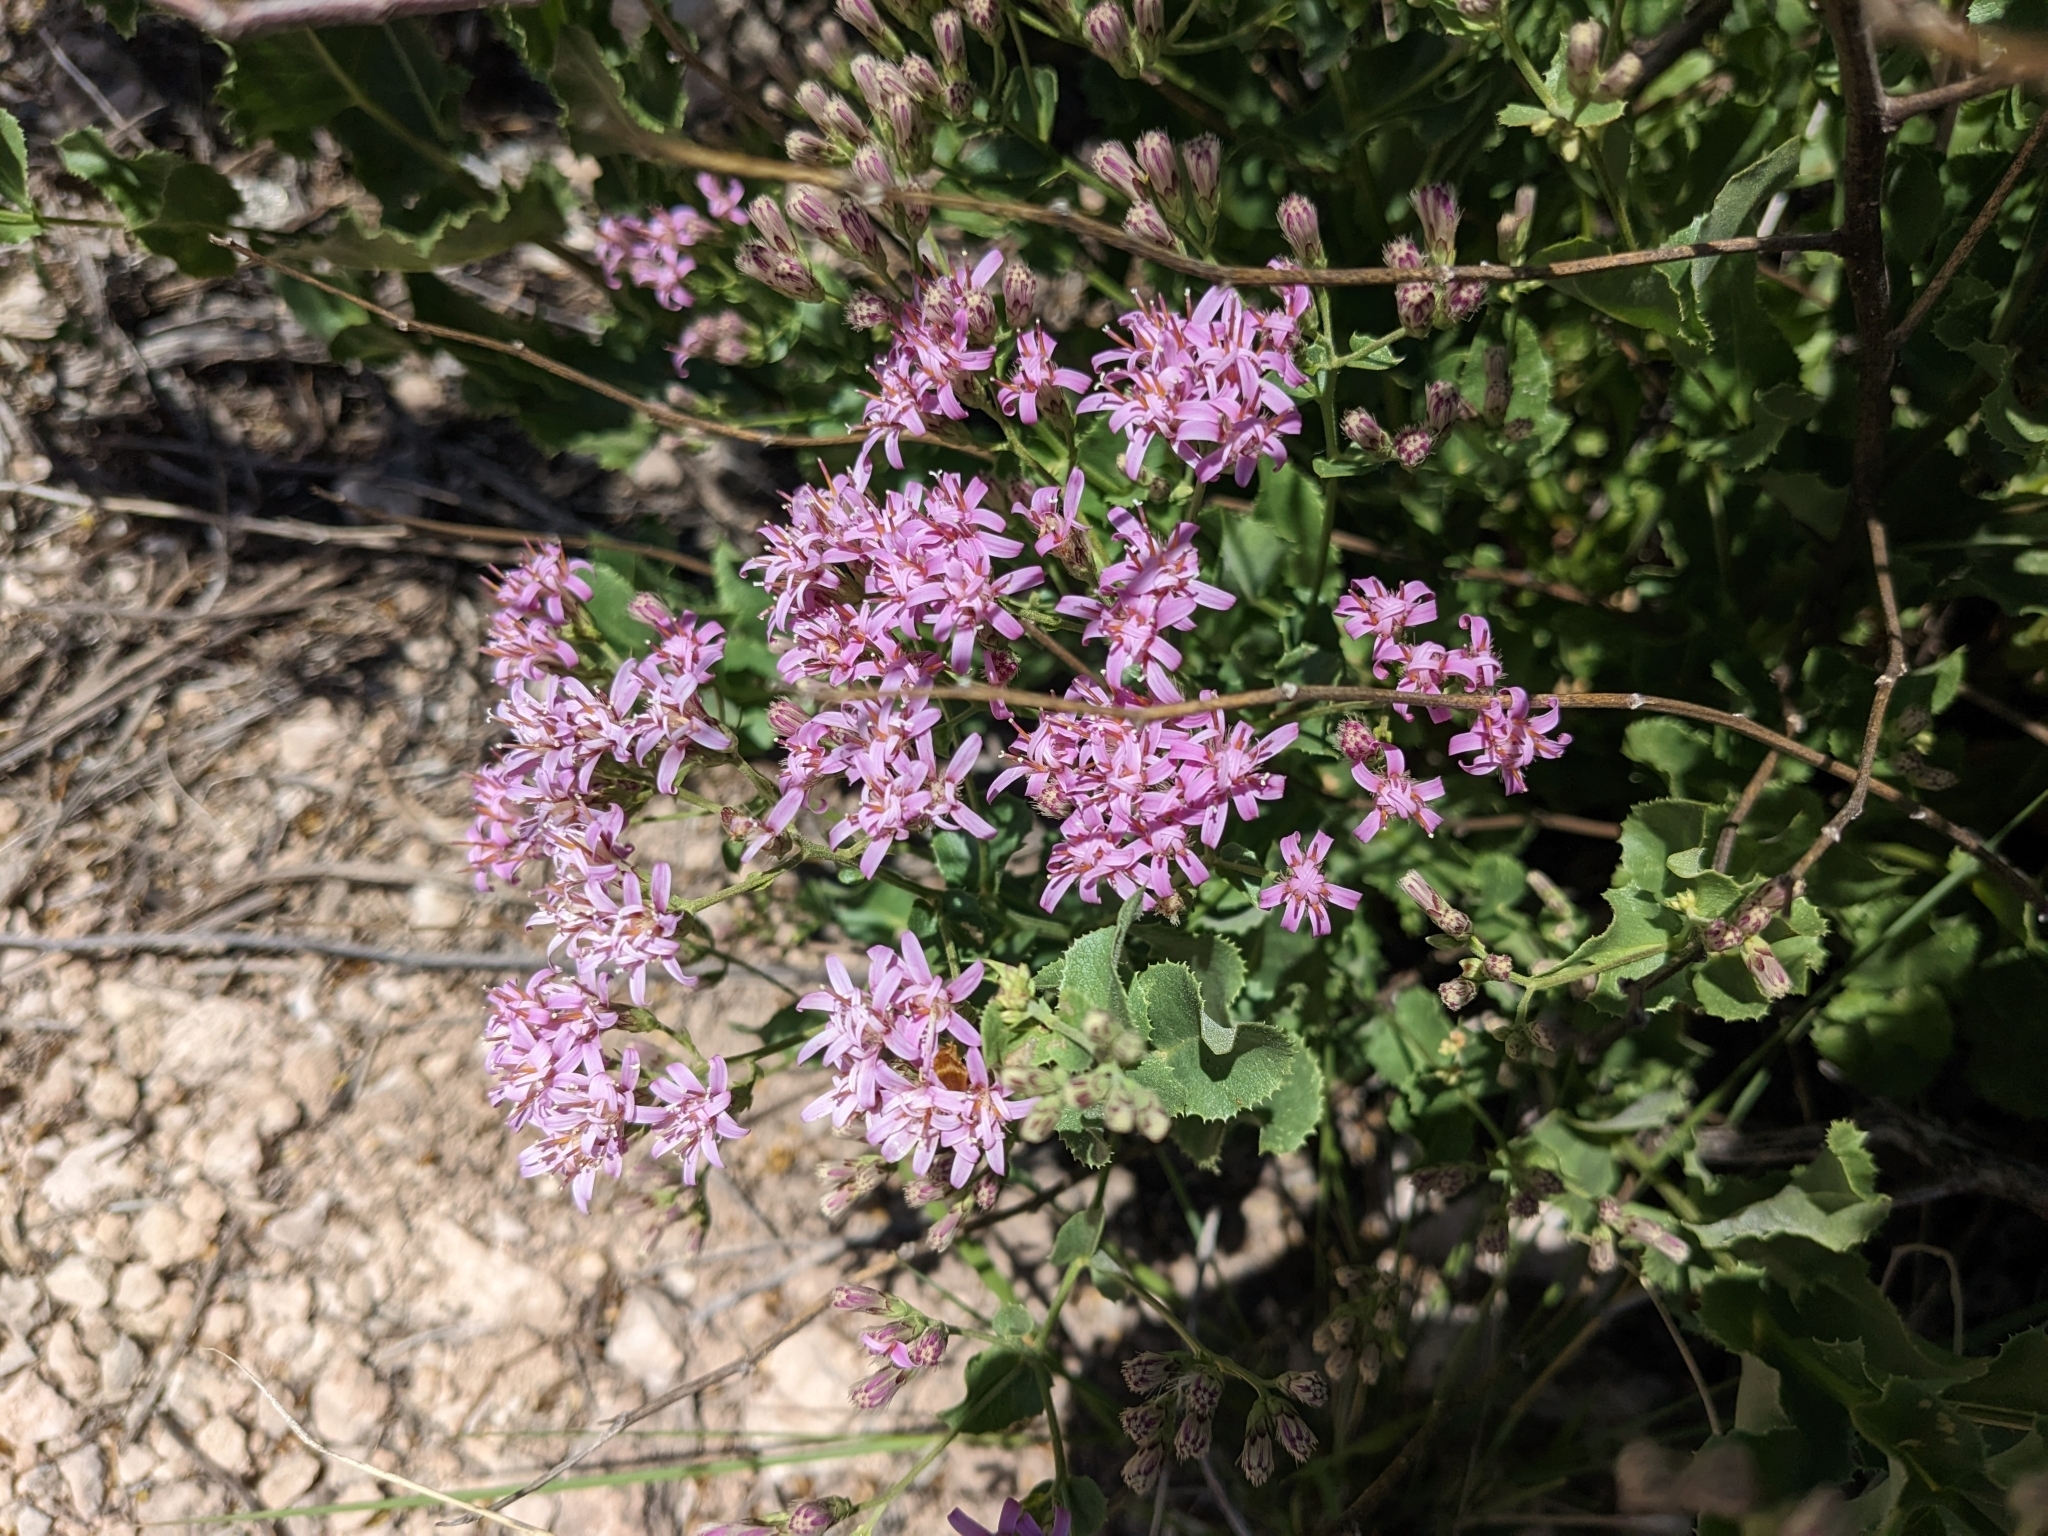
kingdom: Plantae
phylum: Tracheophyta
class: Magnoliopsida
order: Asterales
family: Asteraceae
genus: Acourtia
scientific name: Acourtia wrightii
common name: Brownfoot
